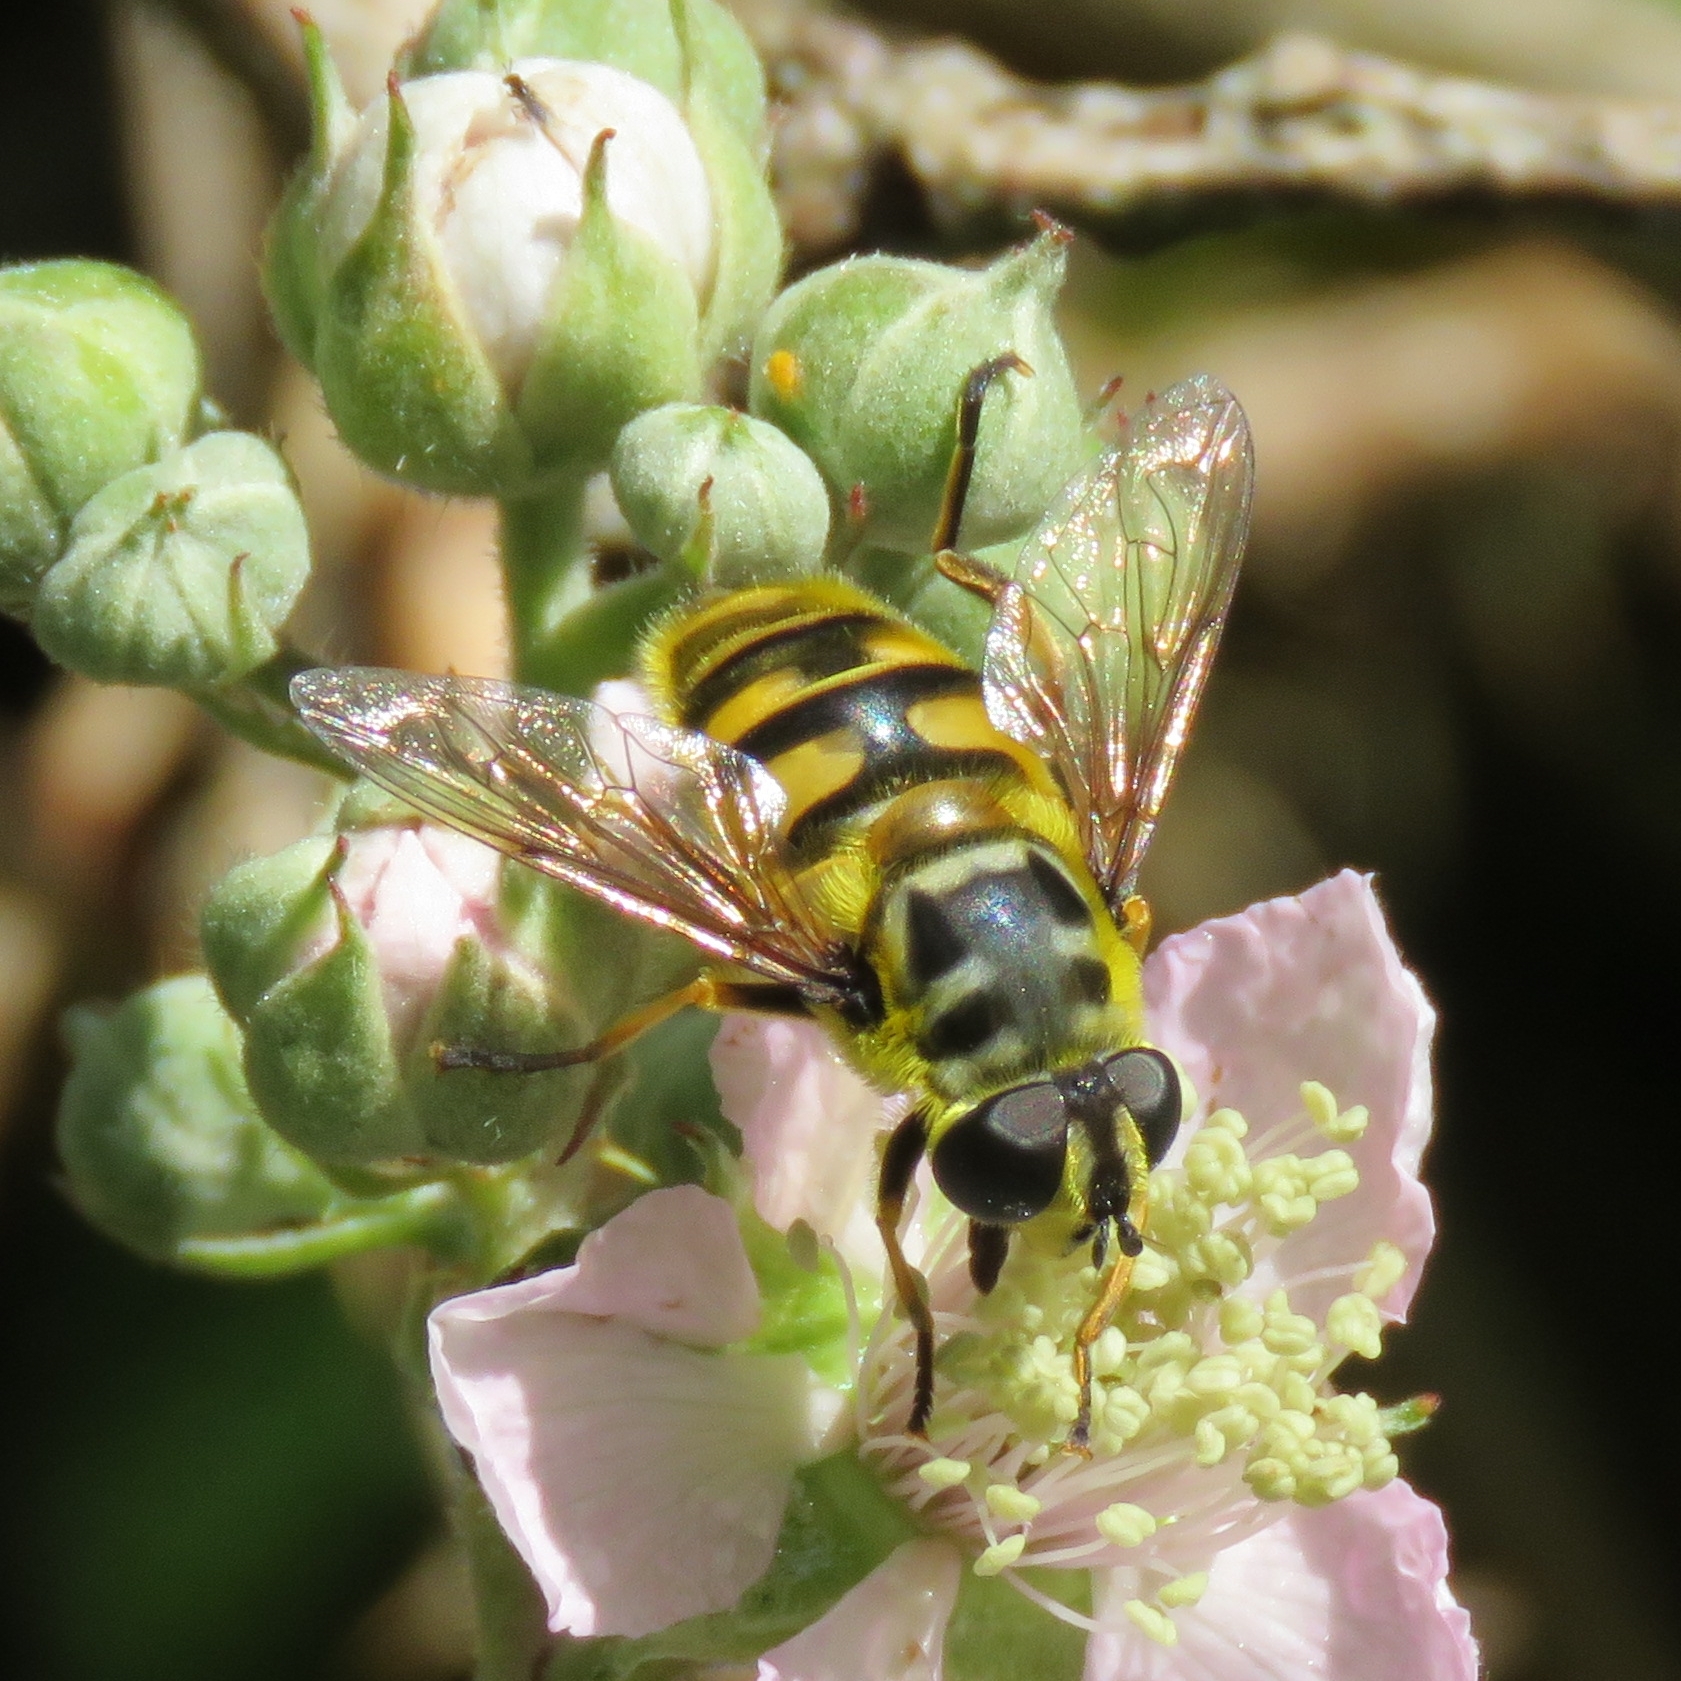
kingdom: Animalia
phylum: Arthropoda
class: Insecta
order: Diptera
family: Syrphidae
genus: Myathropa
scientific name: Myathropa florea
